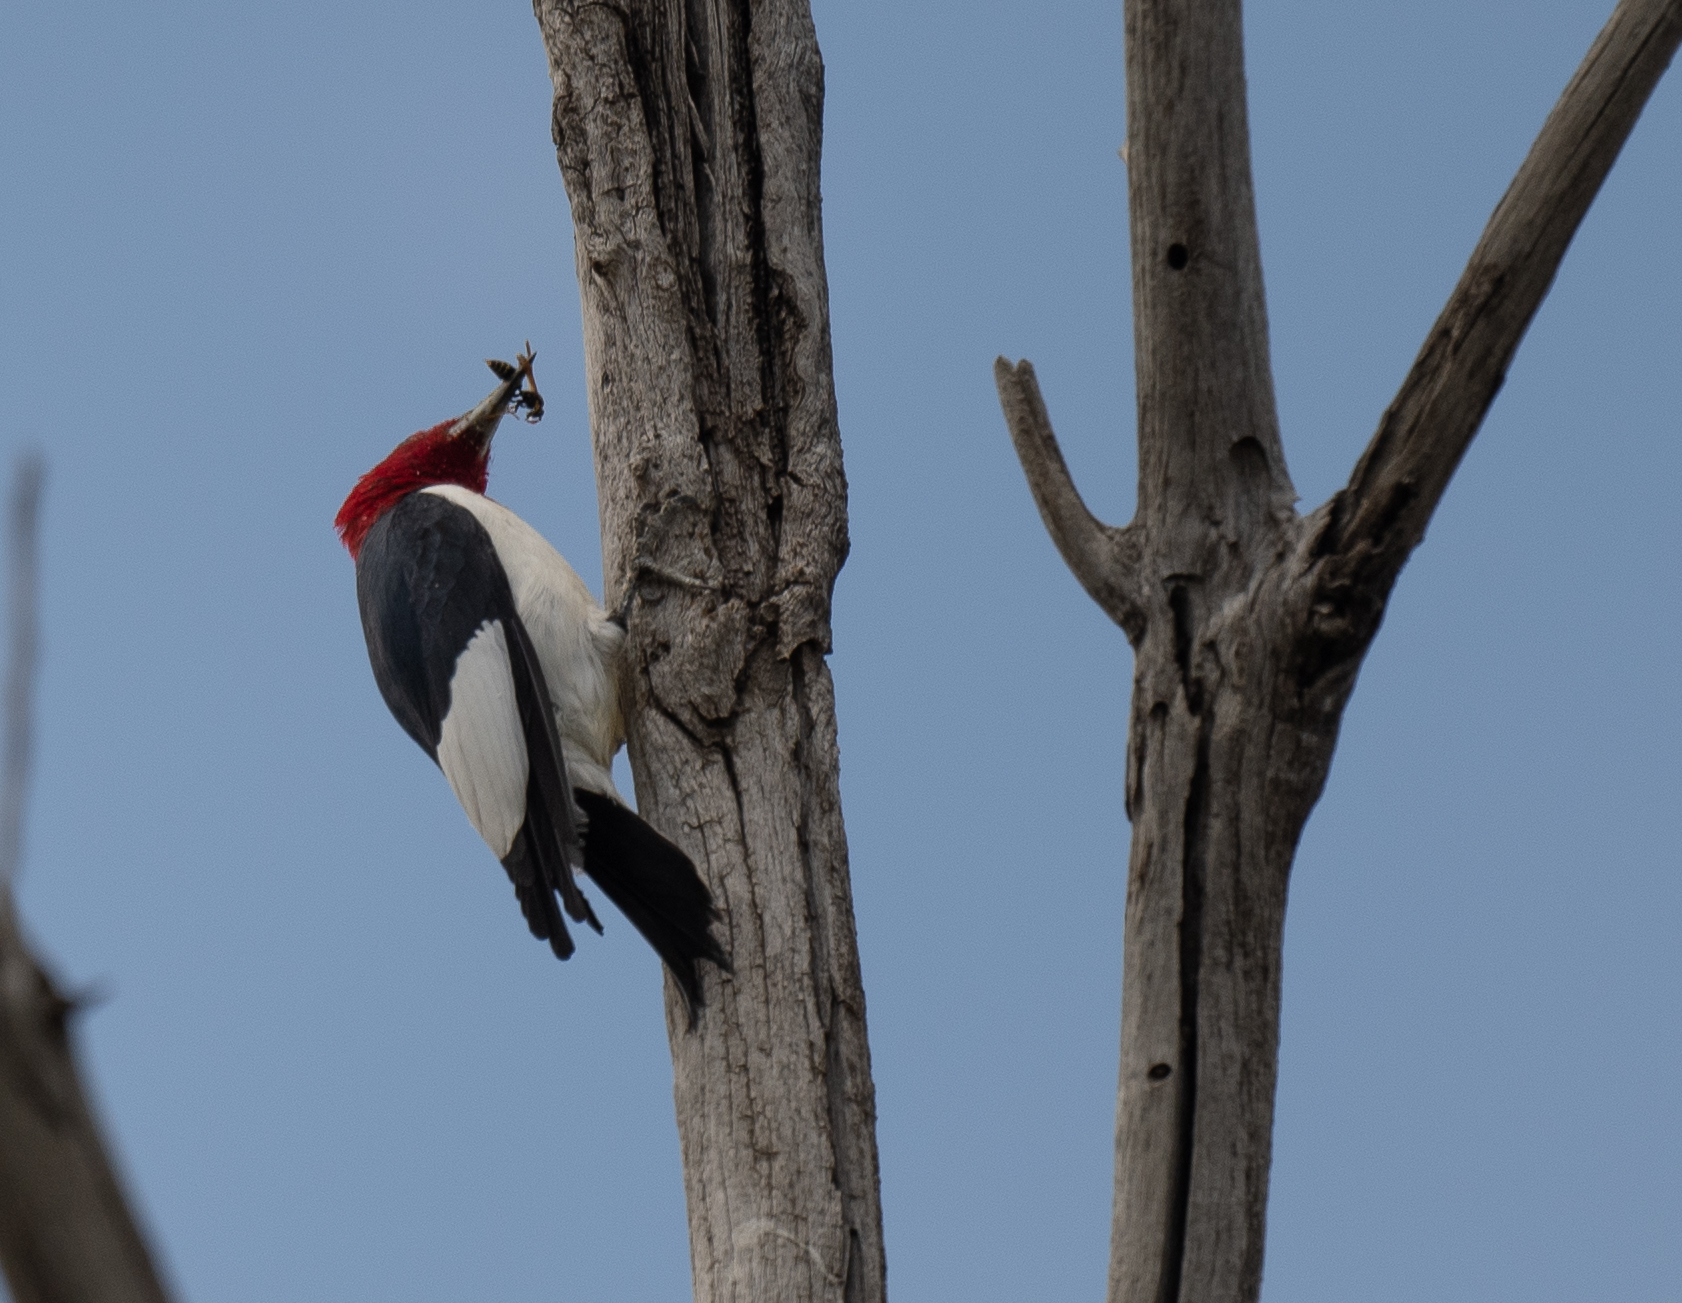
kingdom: Animalia
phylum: Chordata
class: Aves
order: Piciformes
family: Picidae
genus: Melanerpes
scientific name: Melanerpes erythrocephalus
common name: Red-headed woodpecker
